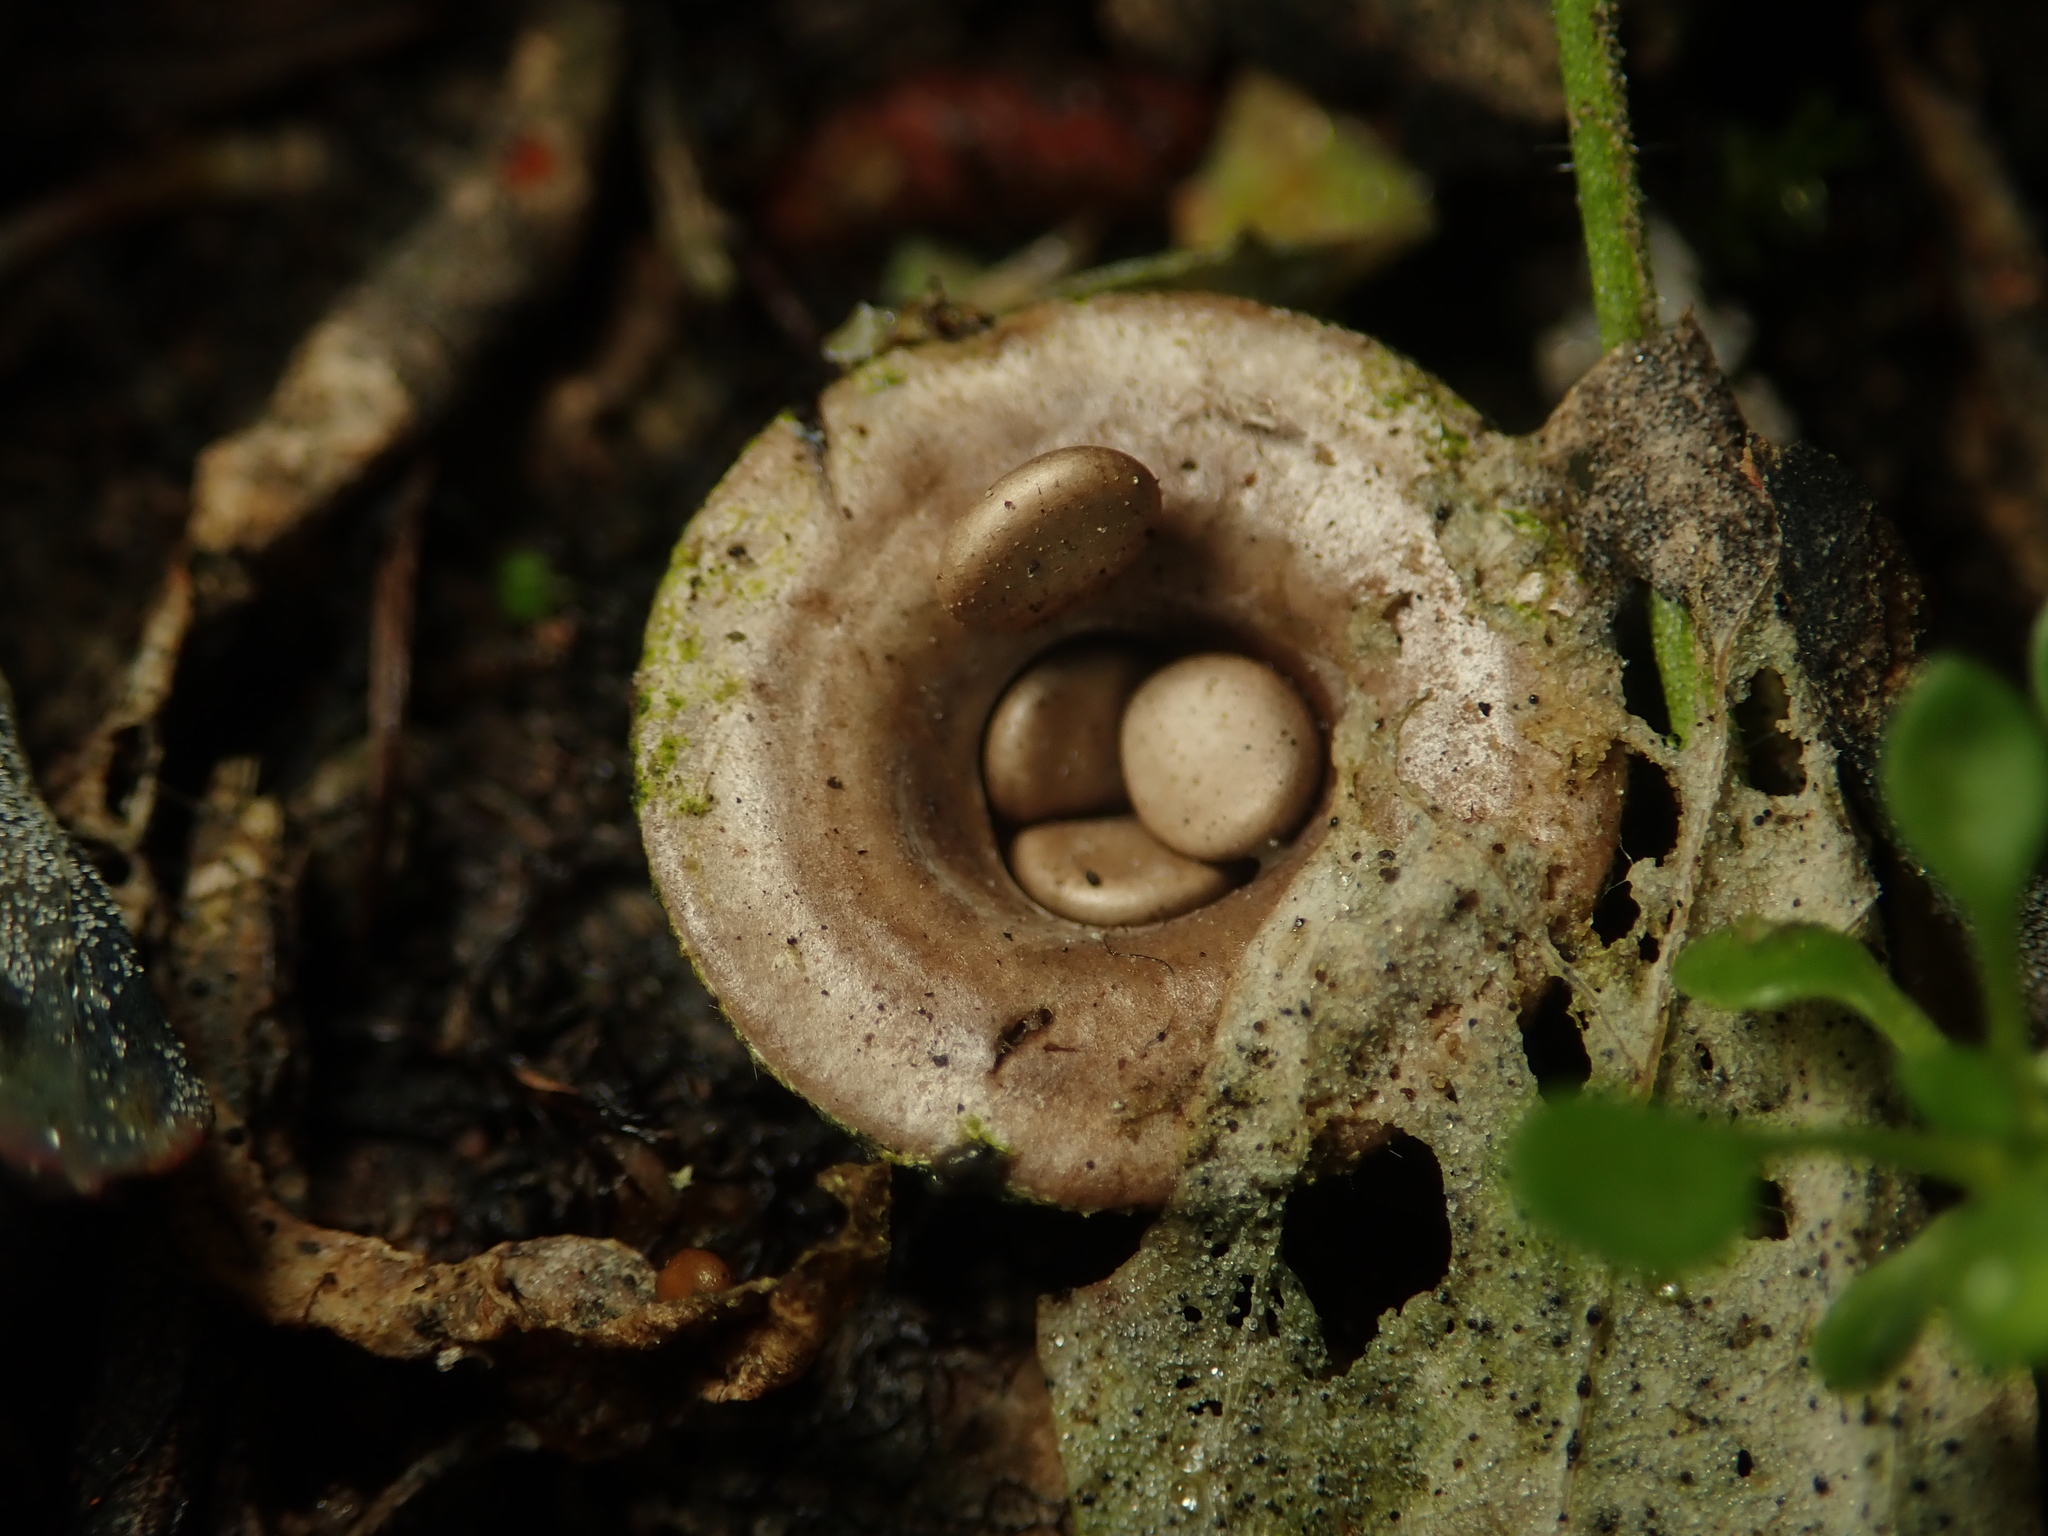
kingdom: Fungi
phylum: Basidiomycota
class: Agaricomycetes
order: Agaricales
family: Agaricaceae
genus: Cyathus
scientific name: Cyathus olla
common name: Field bird's nest
